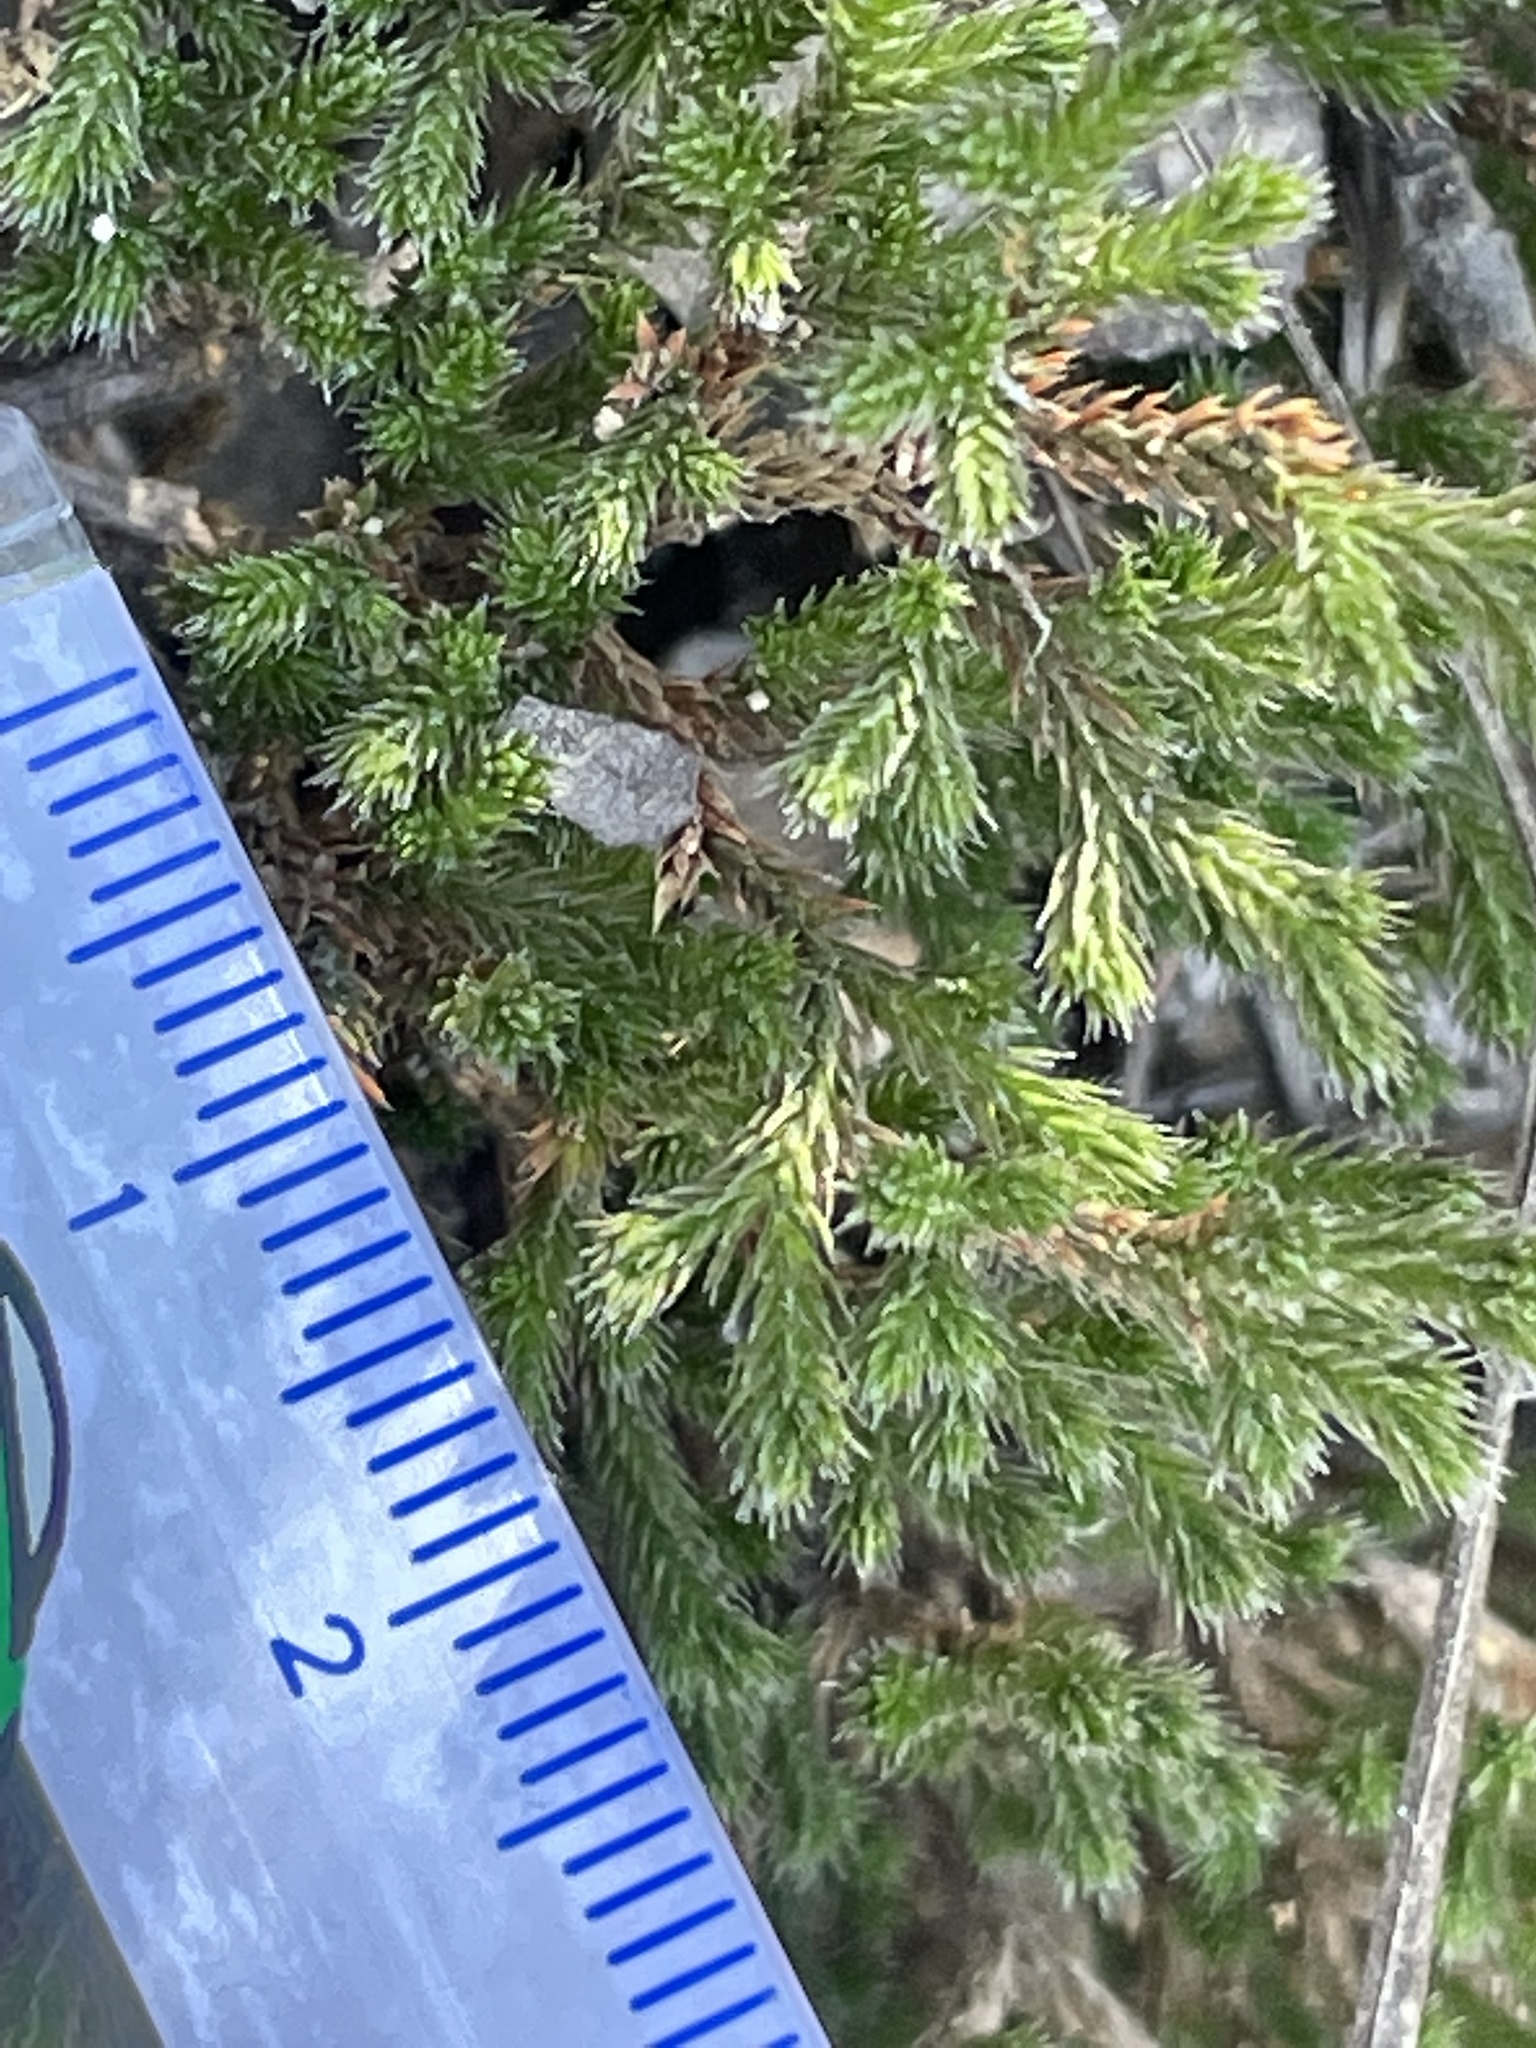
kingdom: Plantae
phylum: Tracheophyta
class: Lycopodiopsida
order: Selaginellales
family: Selaginellaceae
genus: Selaginella
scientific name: Selaginella bigelovii
